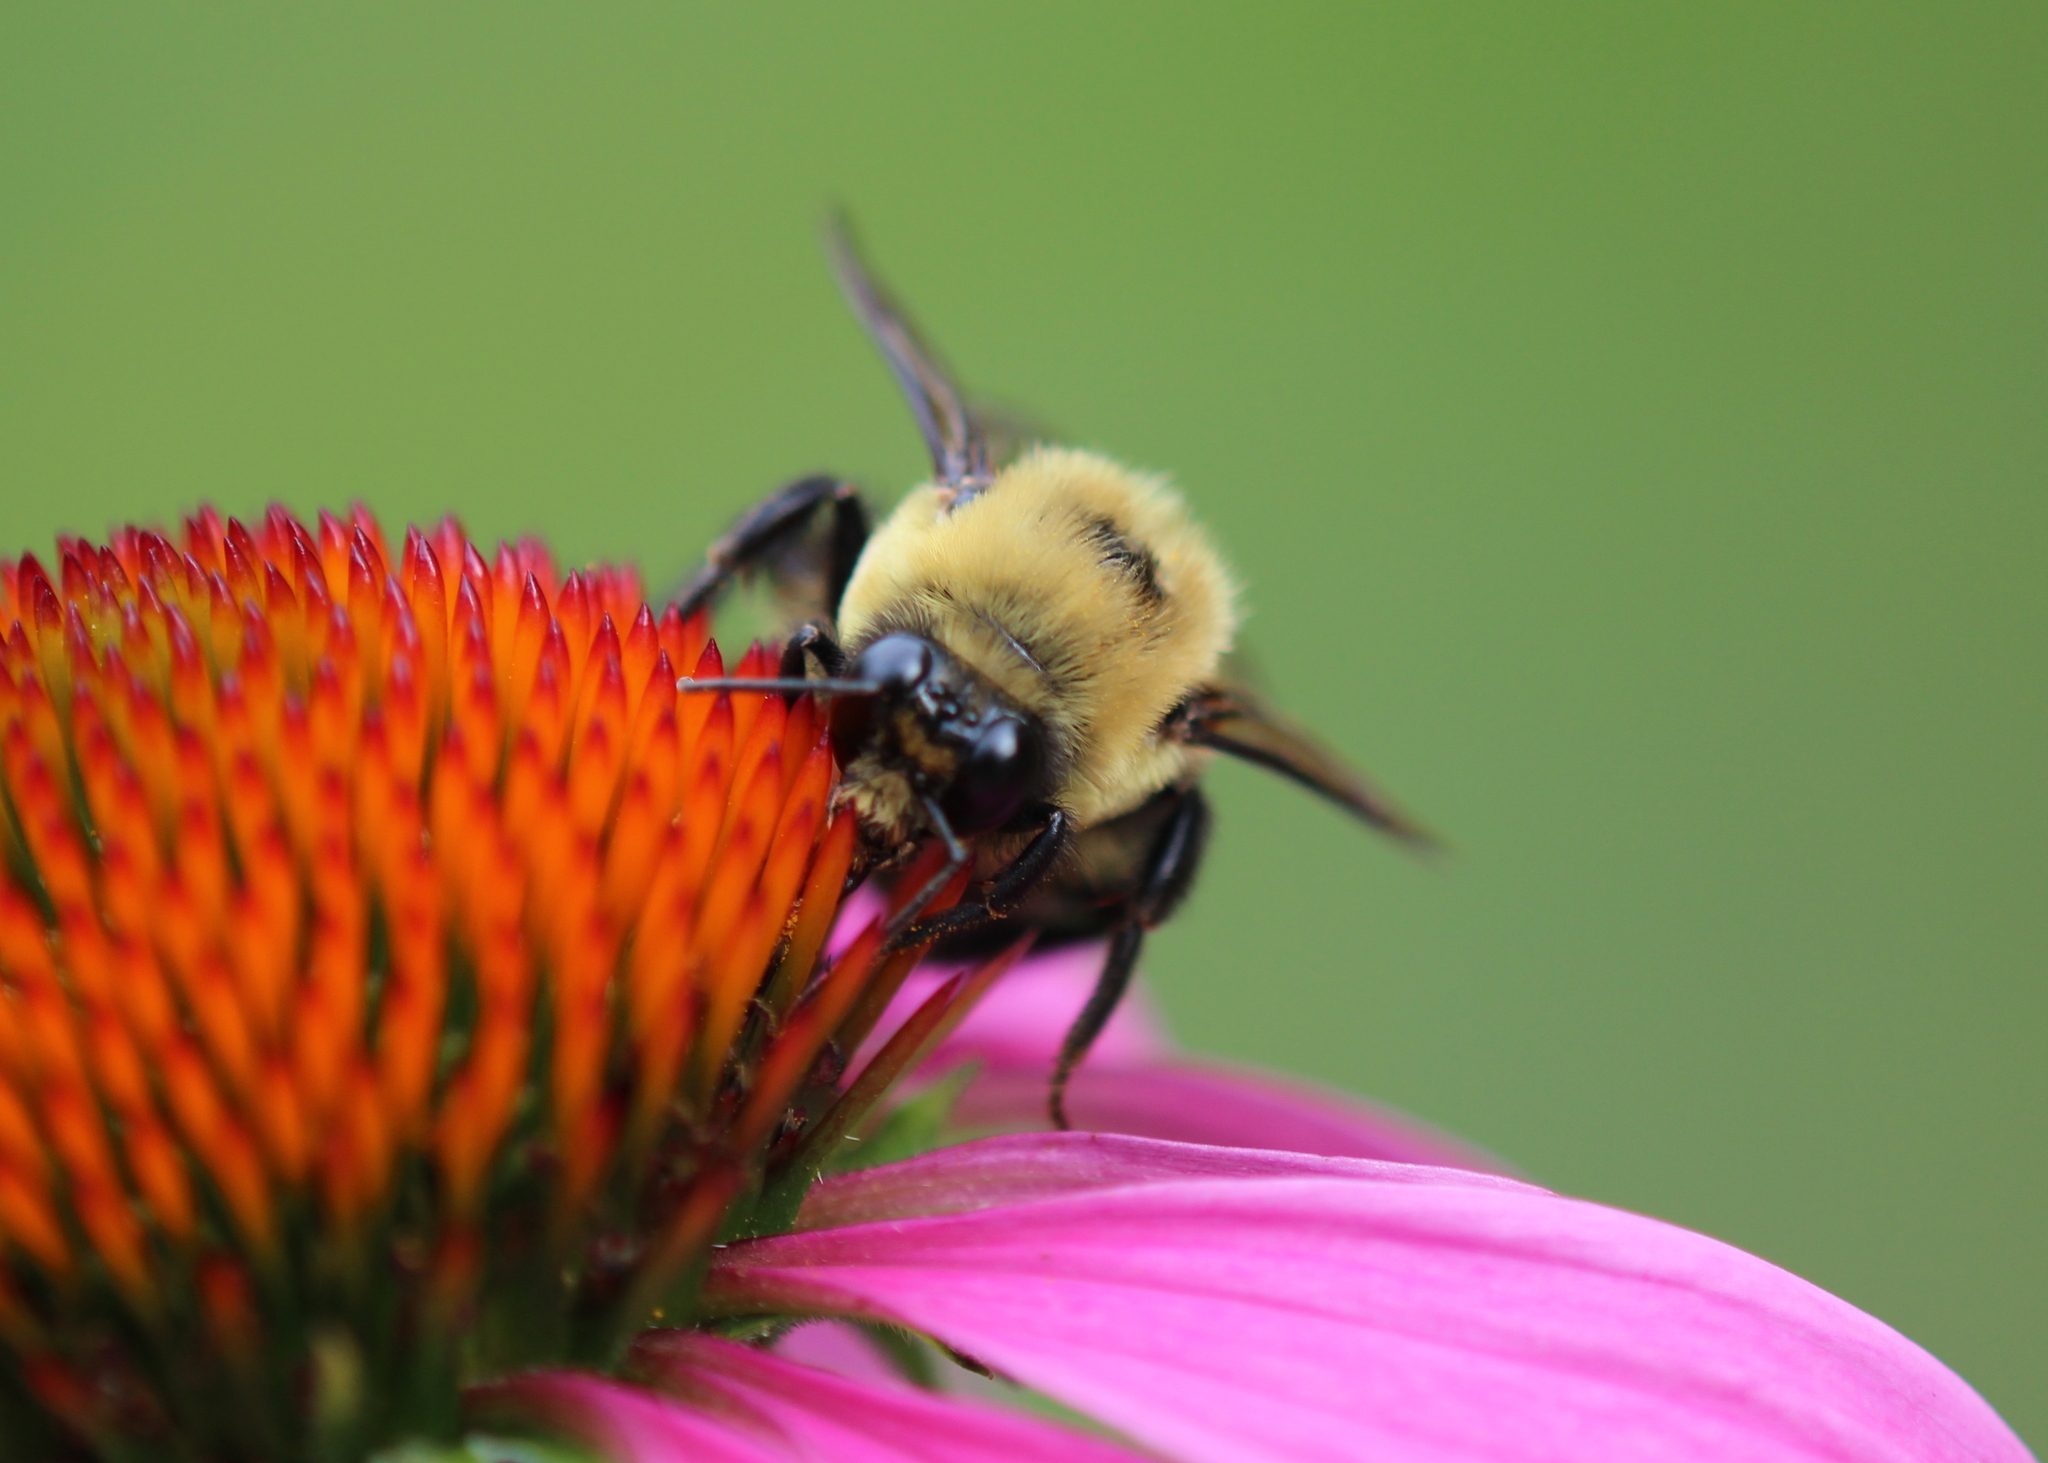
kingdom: Animalia
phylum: Arthropoda
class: Insecta
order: Hymenoptera
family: Apidae
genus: Bombus
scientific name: Bombus griseocollis
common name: Brown-belted bumble bee
